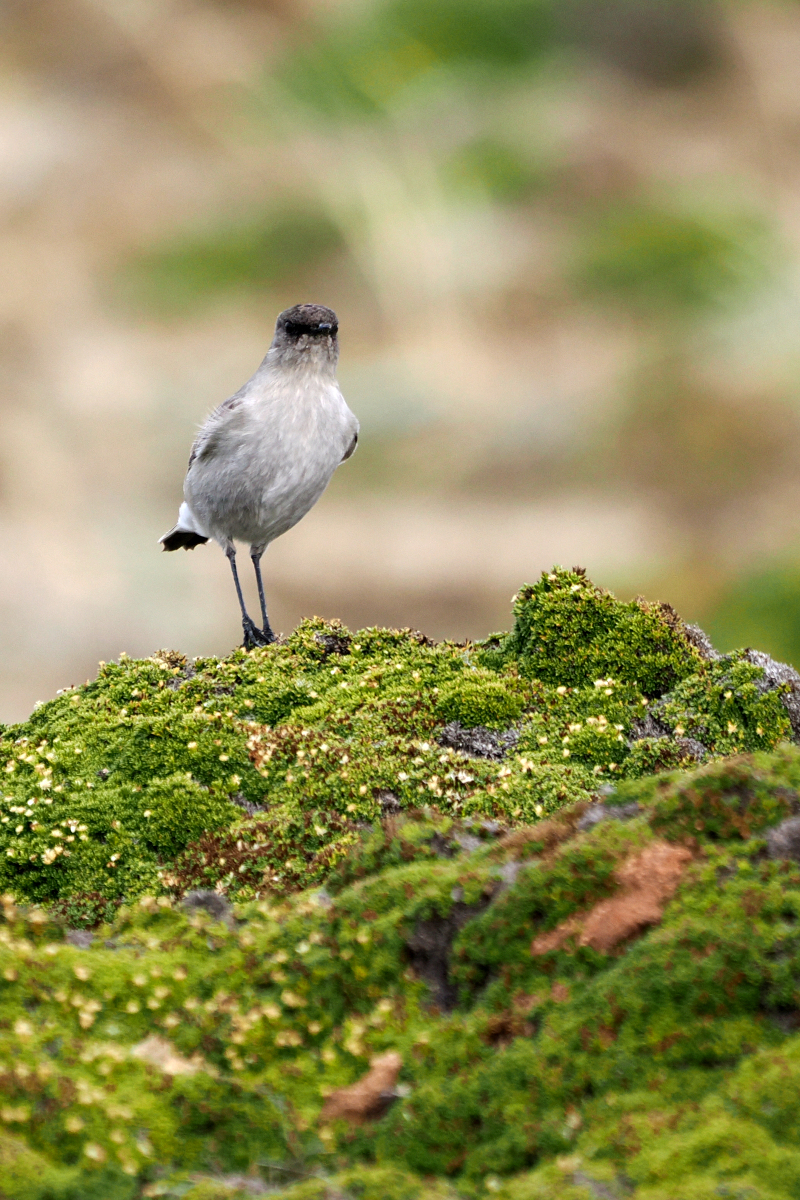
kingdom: Animalia
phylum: Chordata
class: Aves
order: Passeriformes
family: Tyrannidae
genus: Muscisaxicola
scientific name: Muscisaxicola maclovianus
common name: Dark-faced ground tyrant
